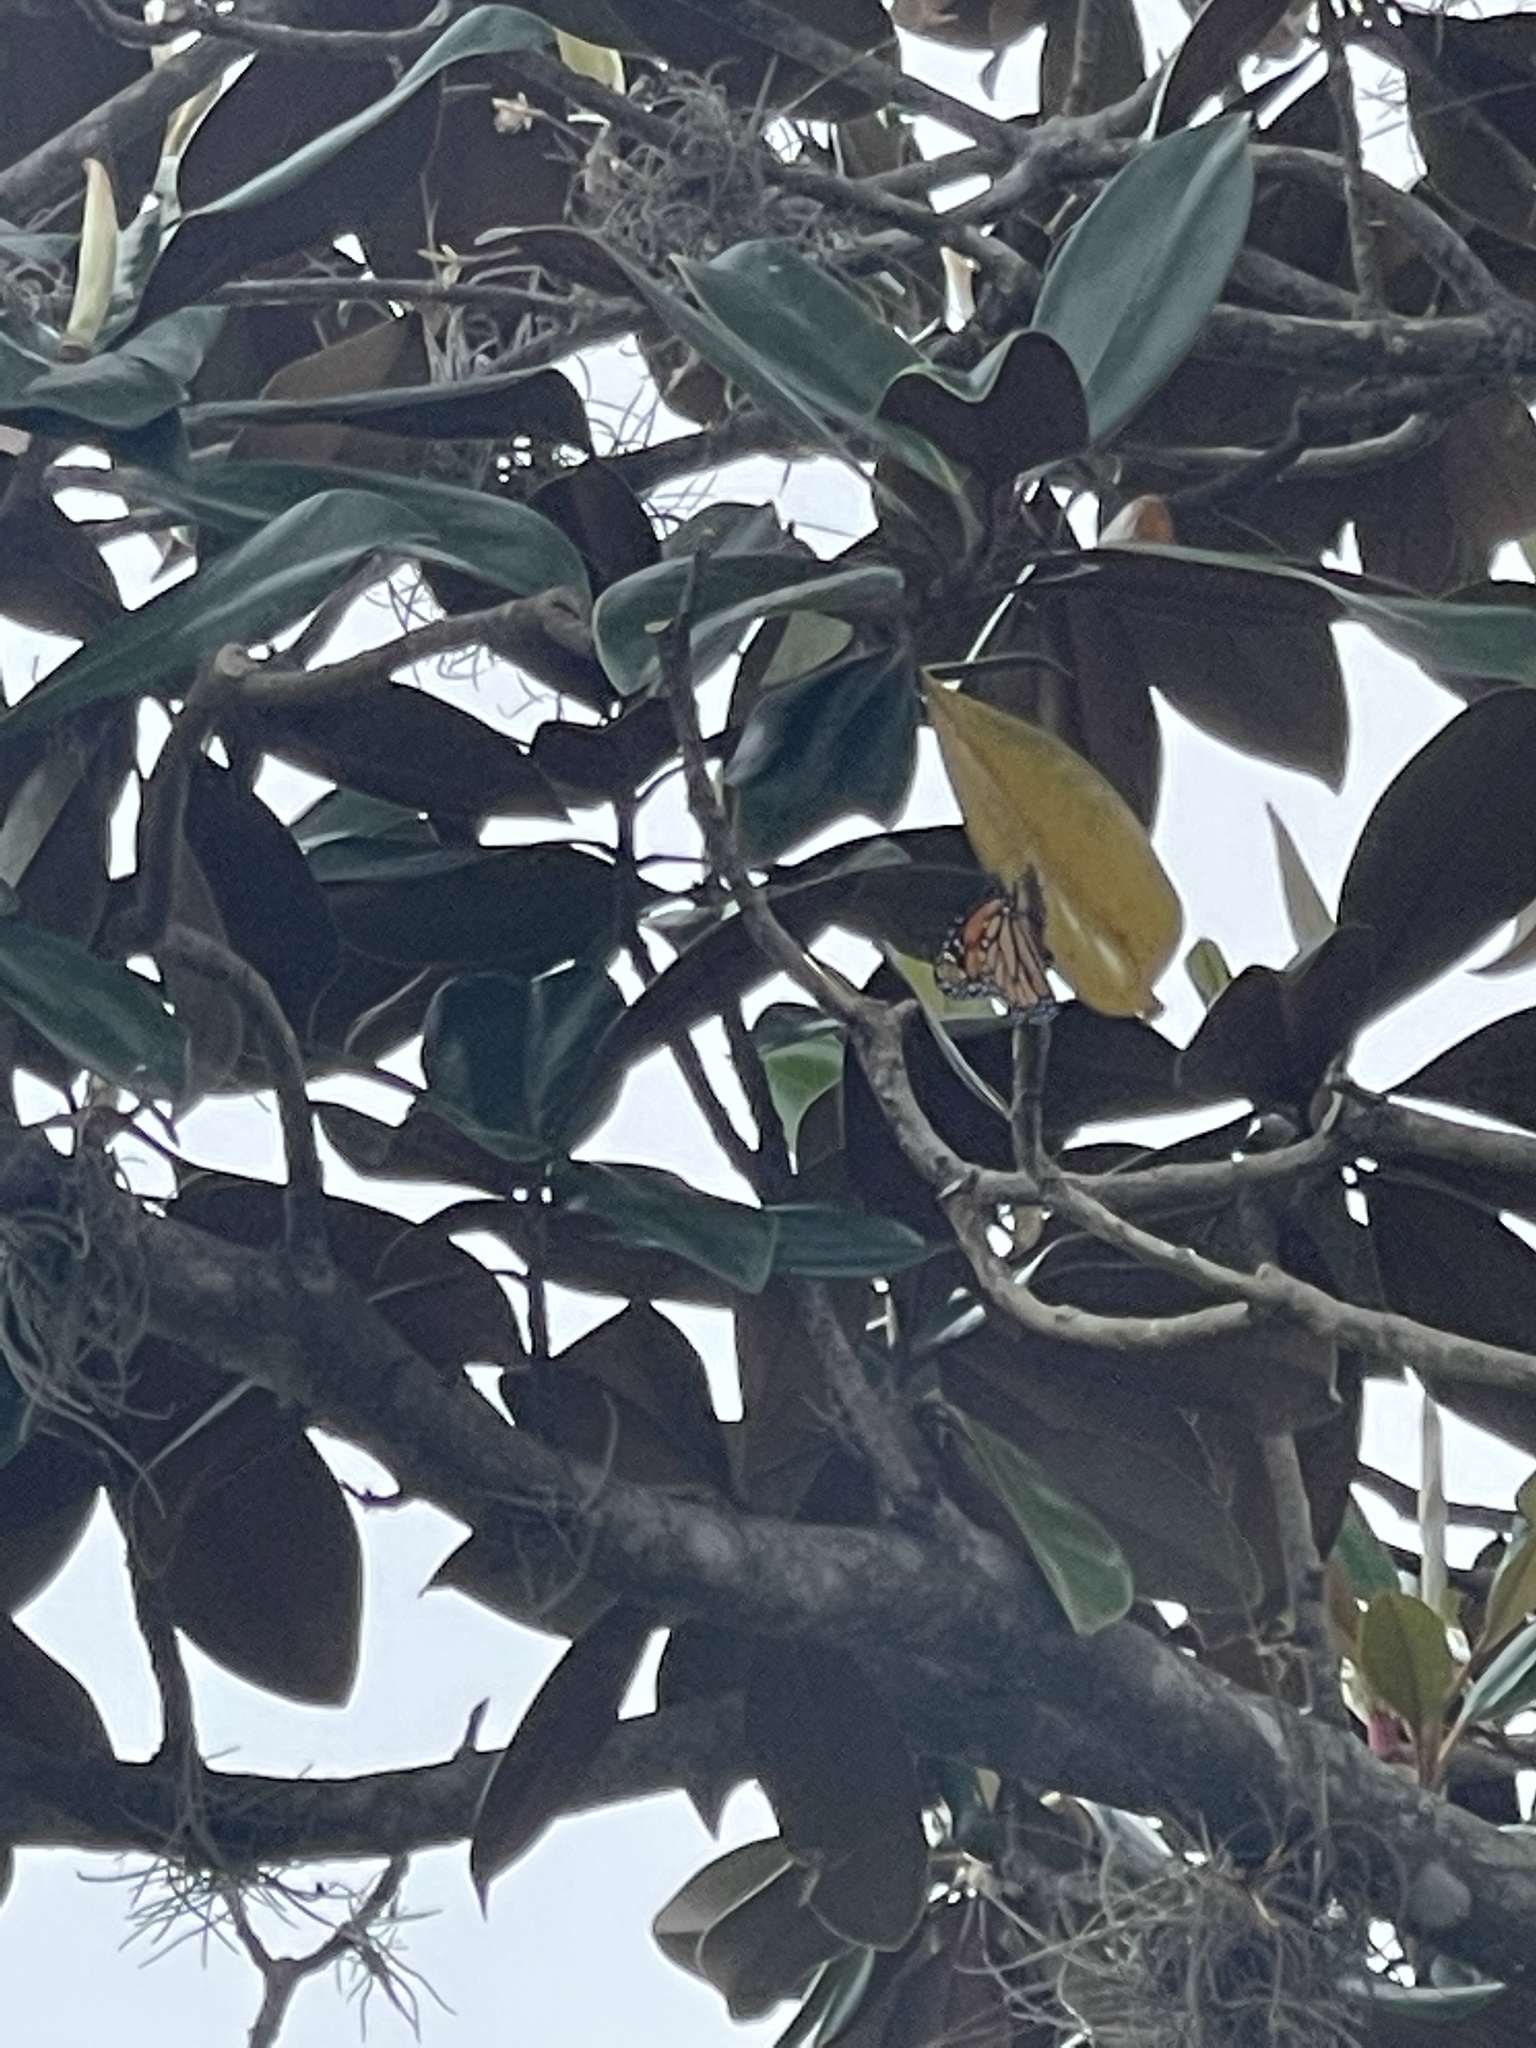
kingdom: Animalia
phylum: Arthropoda
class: Insecta
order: Lepidoptera
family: Nymphalidae
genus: Danaus
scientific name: Danaus plexippus
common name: Monarch
